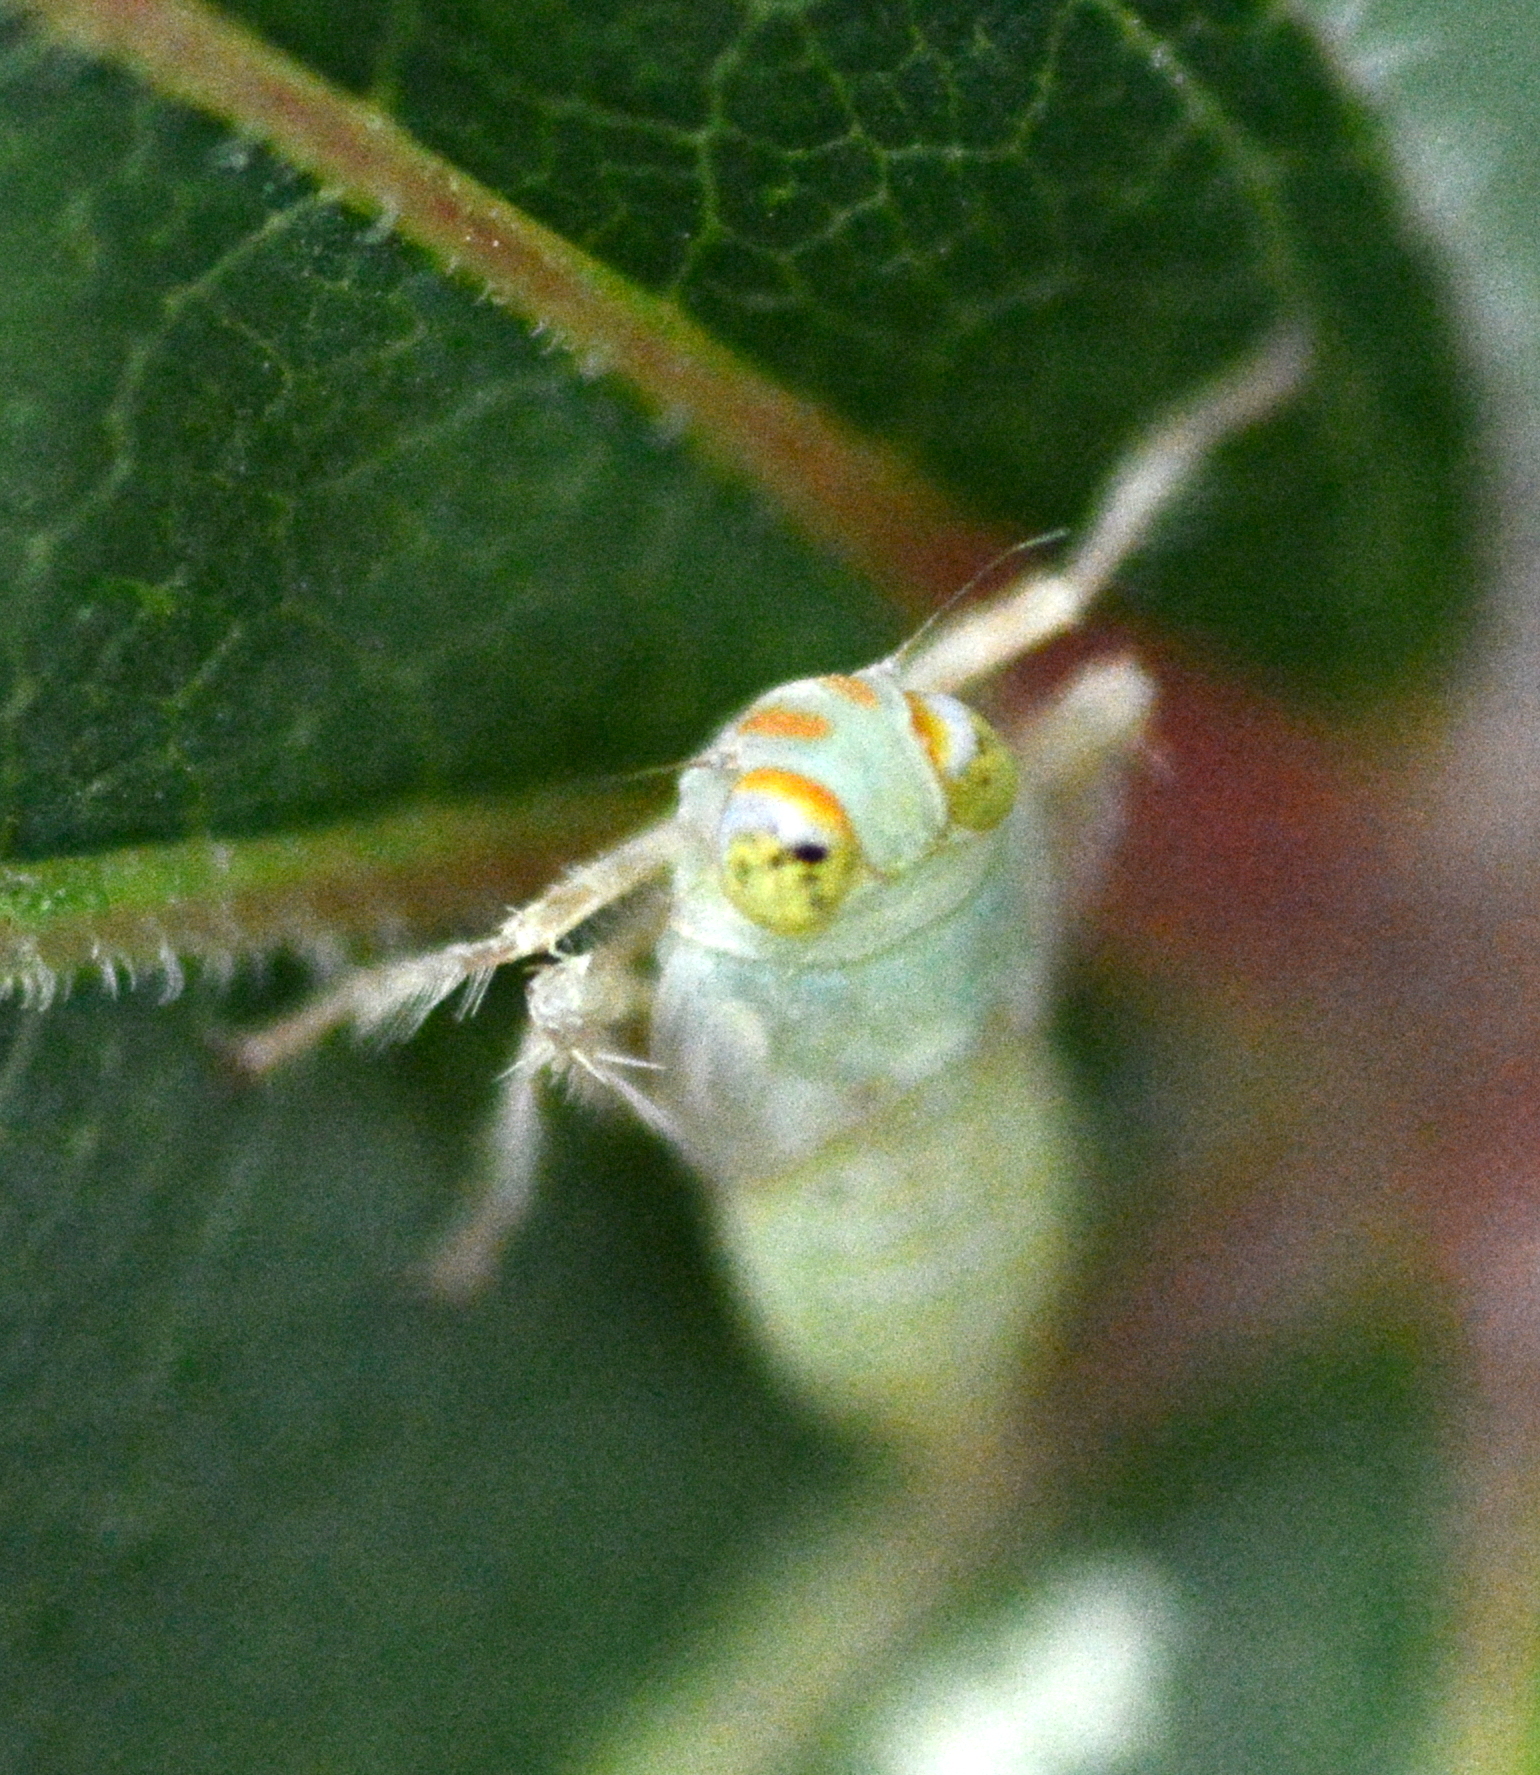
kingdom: Animalia
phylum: Arthropoda
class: Insecta
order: Hemiptera
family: Cicadellidae
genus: Jikradia
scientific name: Jikradia olitoria
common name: Coppery leafhopper
